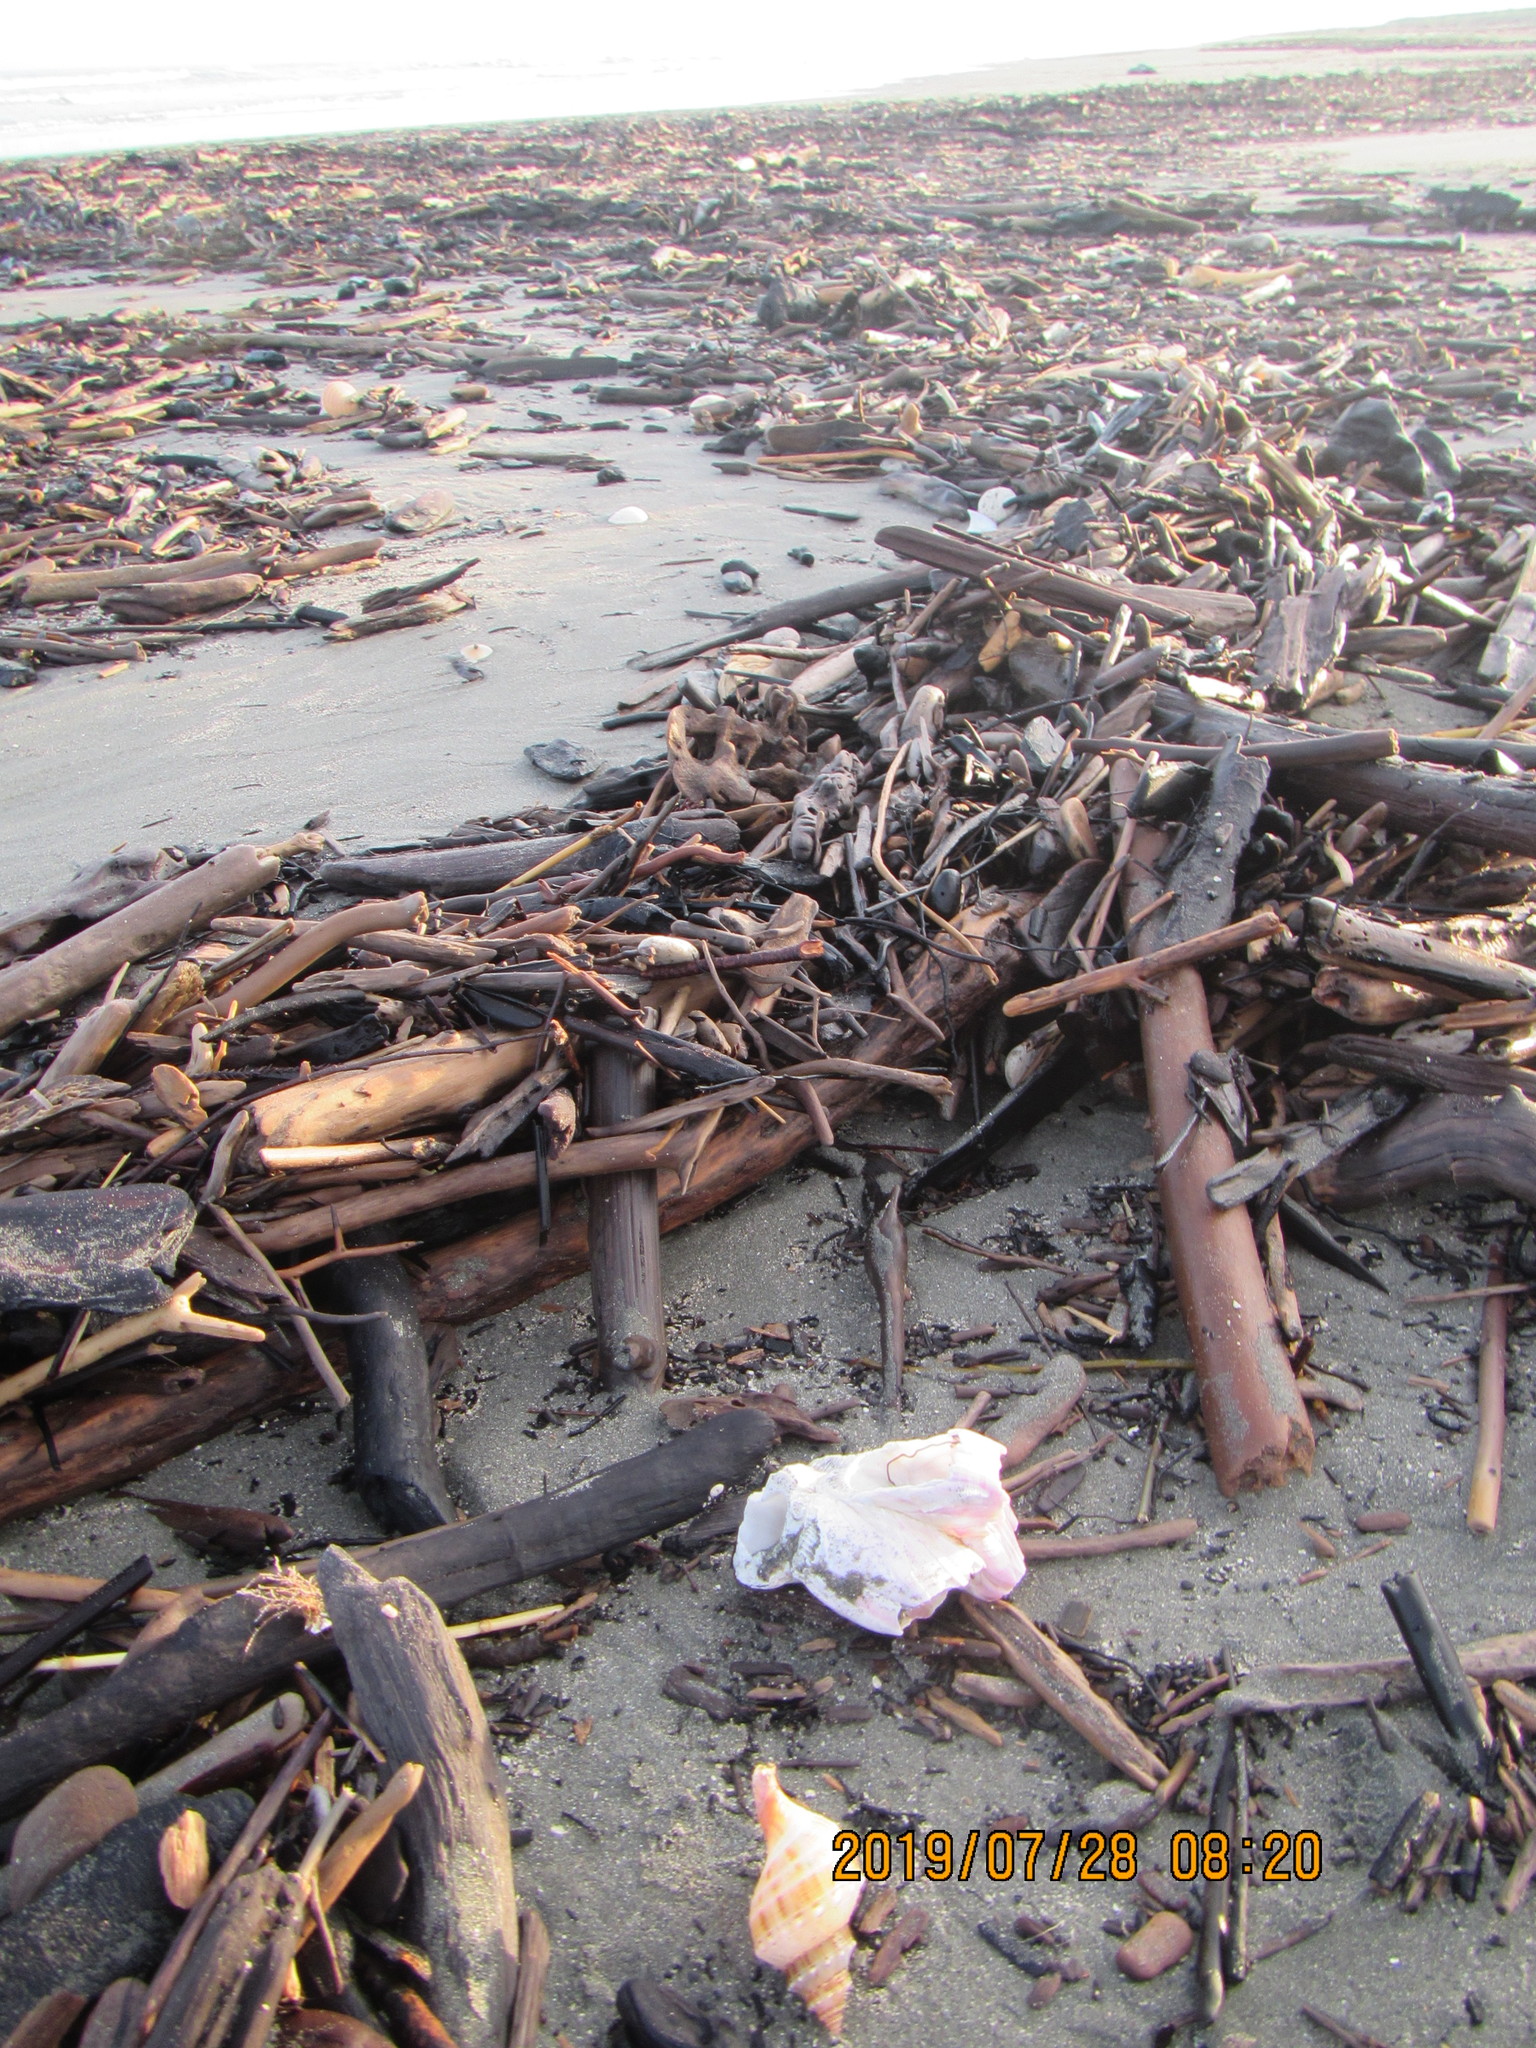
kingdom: Animalia
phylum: Arthropoda
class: Maxillopoda
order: Sessilia
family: Balanidae
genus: Notomegabalanus
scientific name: Notomegabalanus decorus
